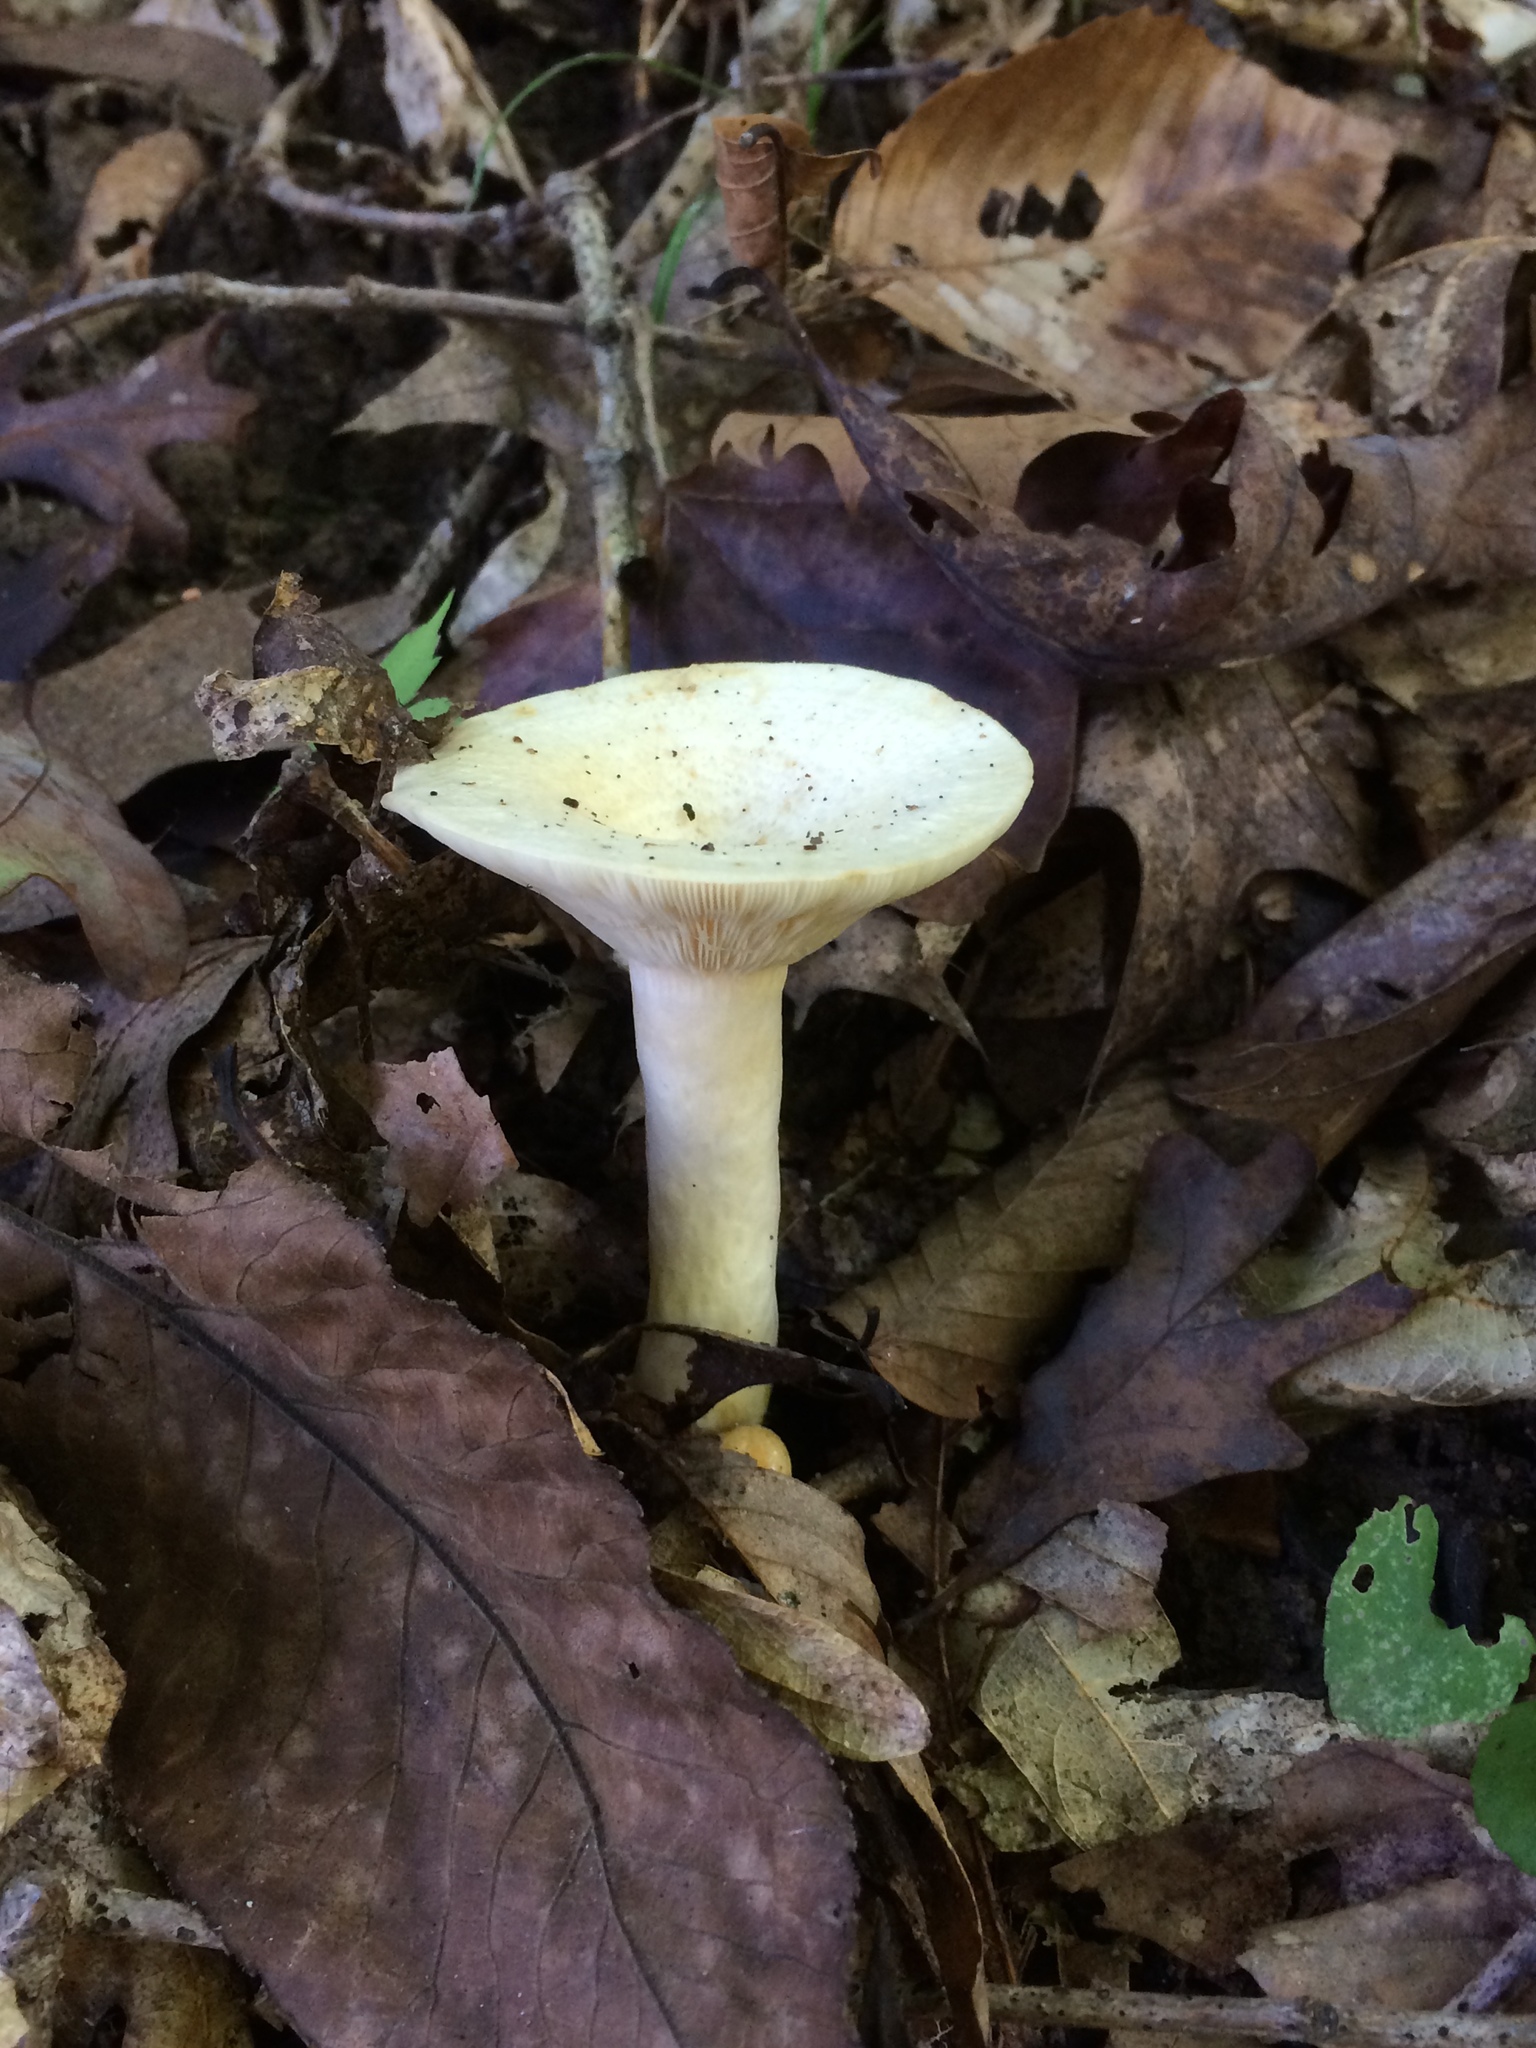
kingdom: Fungi
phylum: Basidiomycota
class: Agaricomycetes
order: Russulales
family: Russulaceae
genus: Lactarius
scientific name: Lactarius yazooensis
